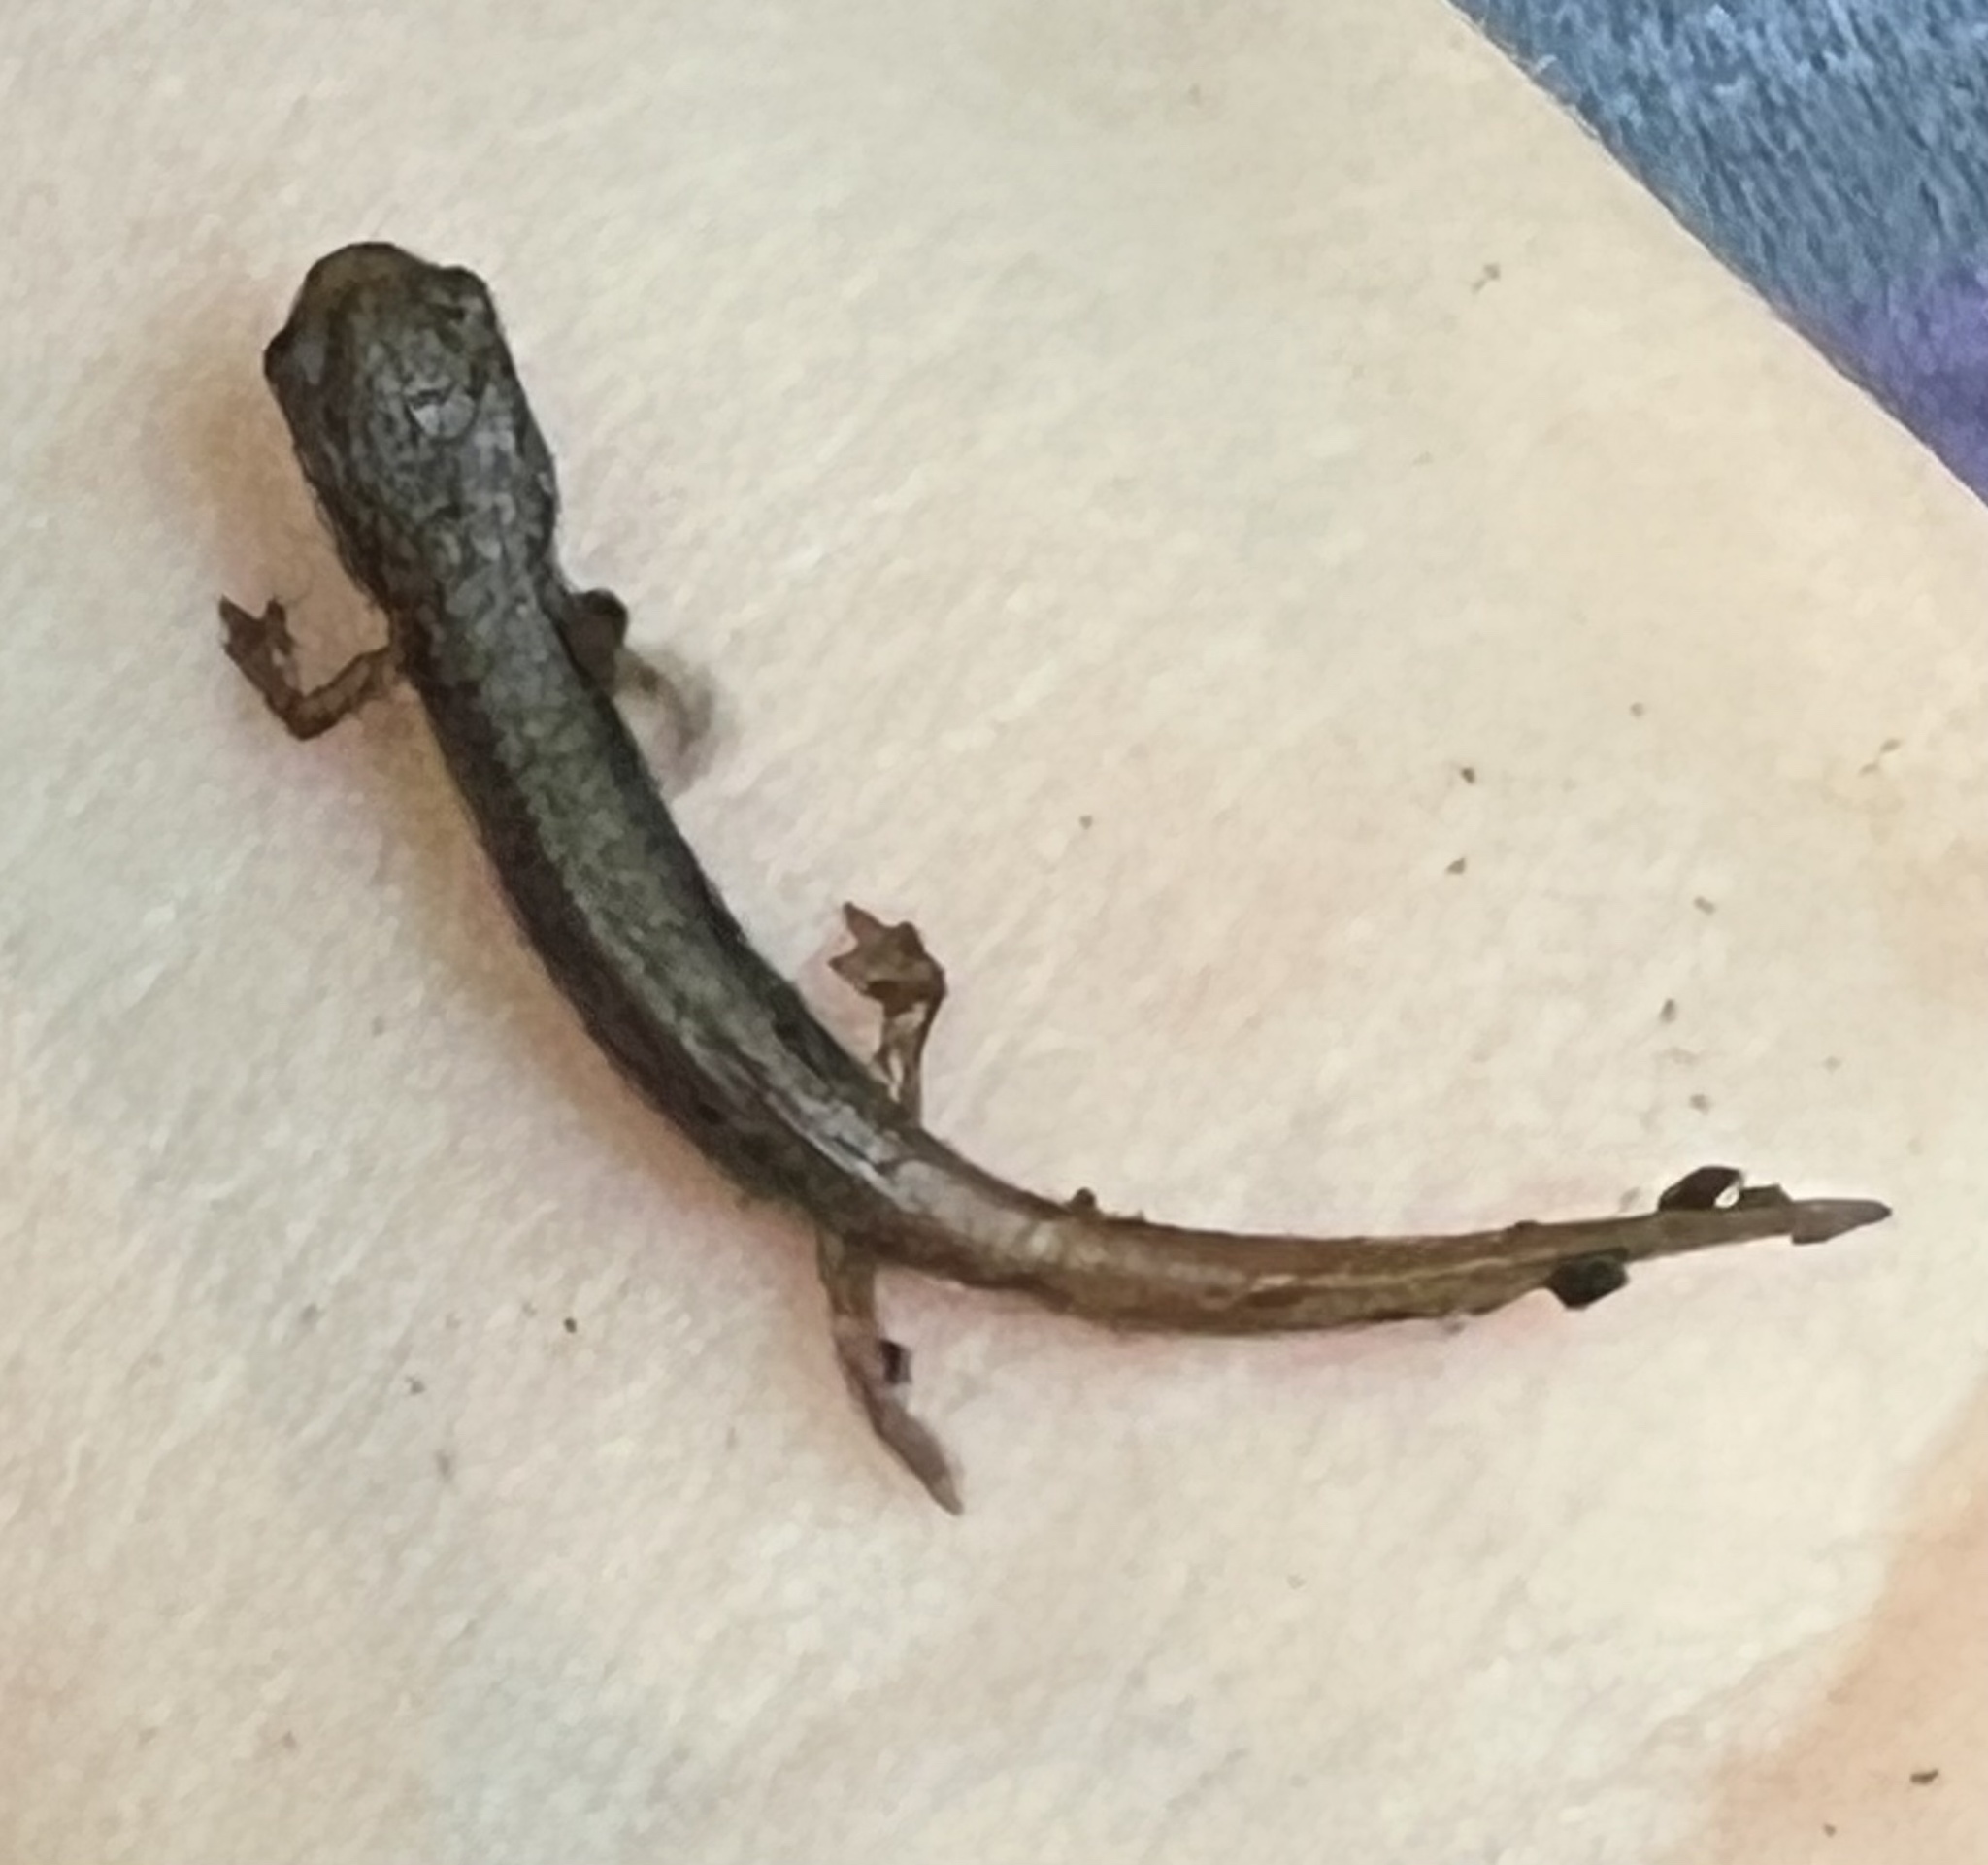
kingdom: Animalia
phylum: Chordata
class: Amphibia
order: Caudata
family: Plethodontidae
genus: Hemidactylium
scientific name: Hemidactylium scutatum
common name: Four-toed salamander
